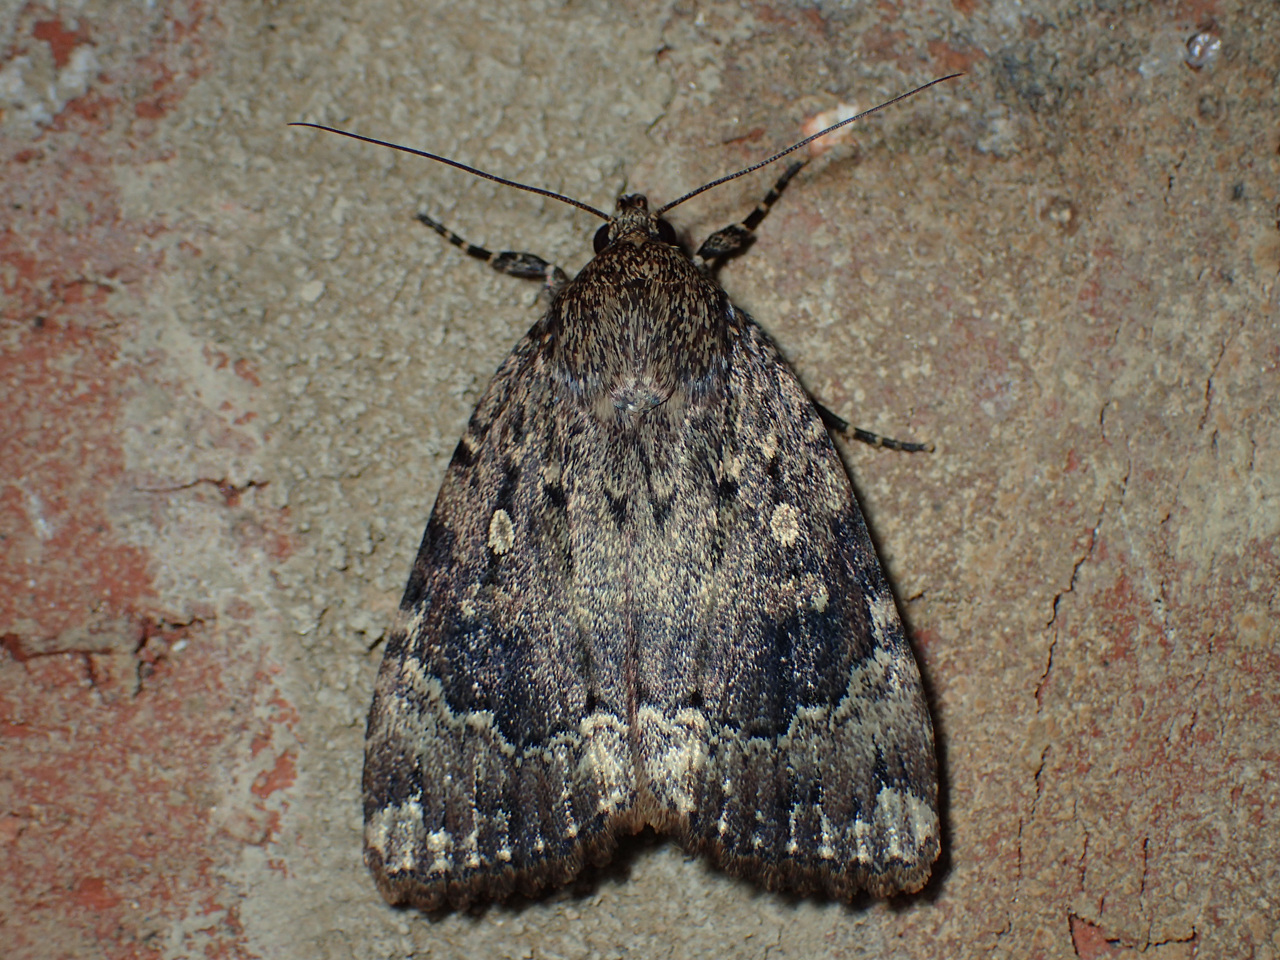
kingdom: Animalia
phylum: Arthropoda
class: Insecta
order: Lepidoptera
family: Noctuidae
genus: Amphipyra
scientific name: Amphipyra pyramidoides
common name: American copper underwing
